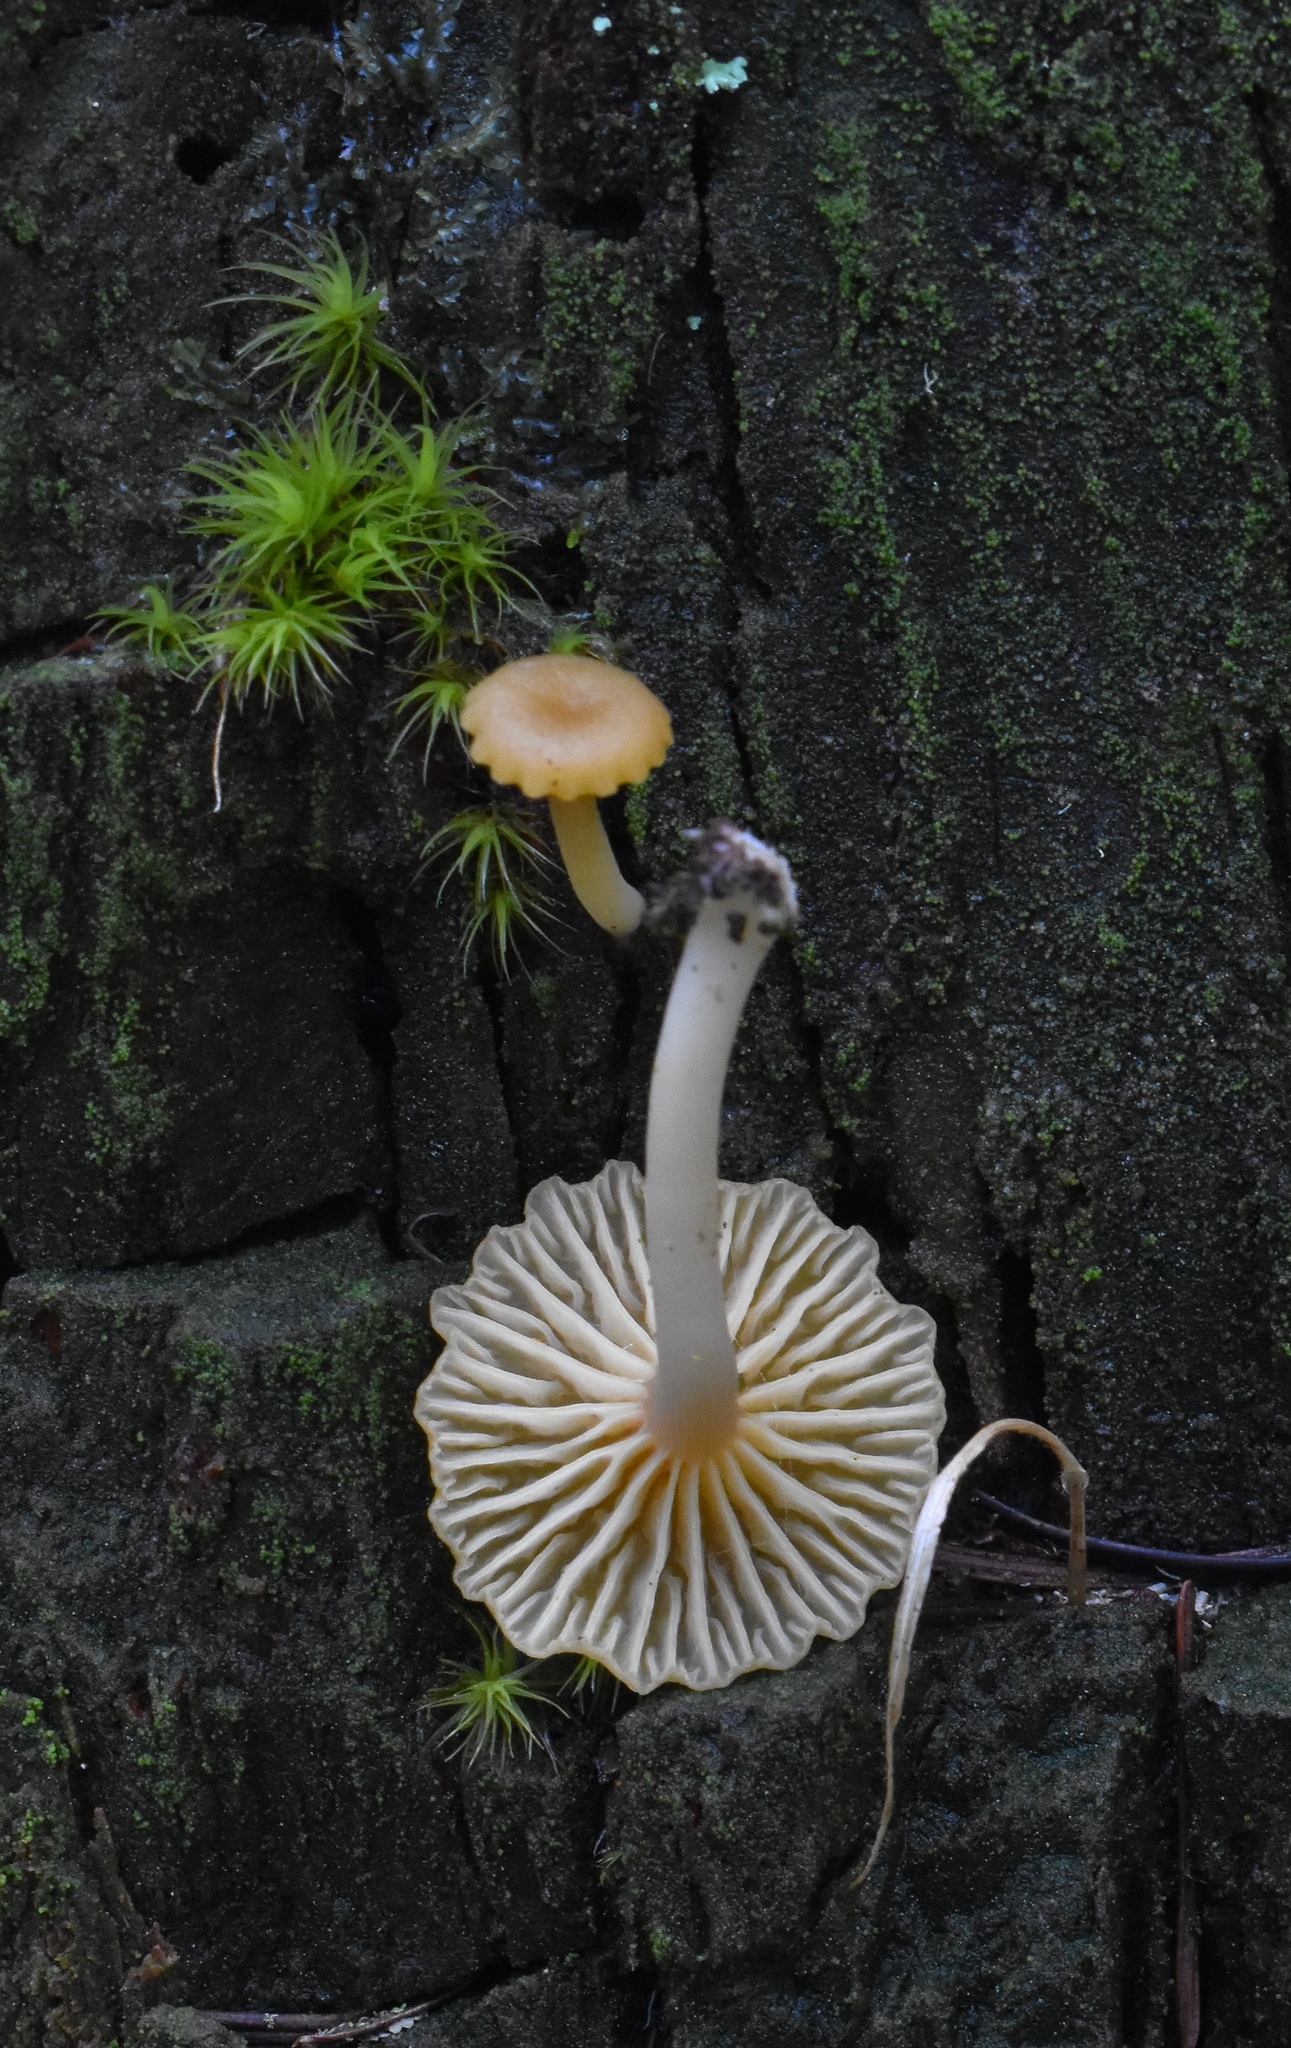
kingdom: Fungi
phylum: Basidiomycota
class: Agaricomycetes
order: Agaricales
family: Hygrophoraceae
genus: Lichenomphalia
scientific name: Lichenomphalia
